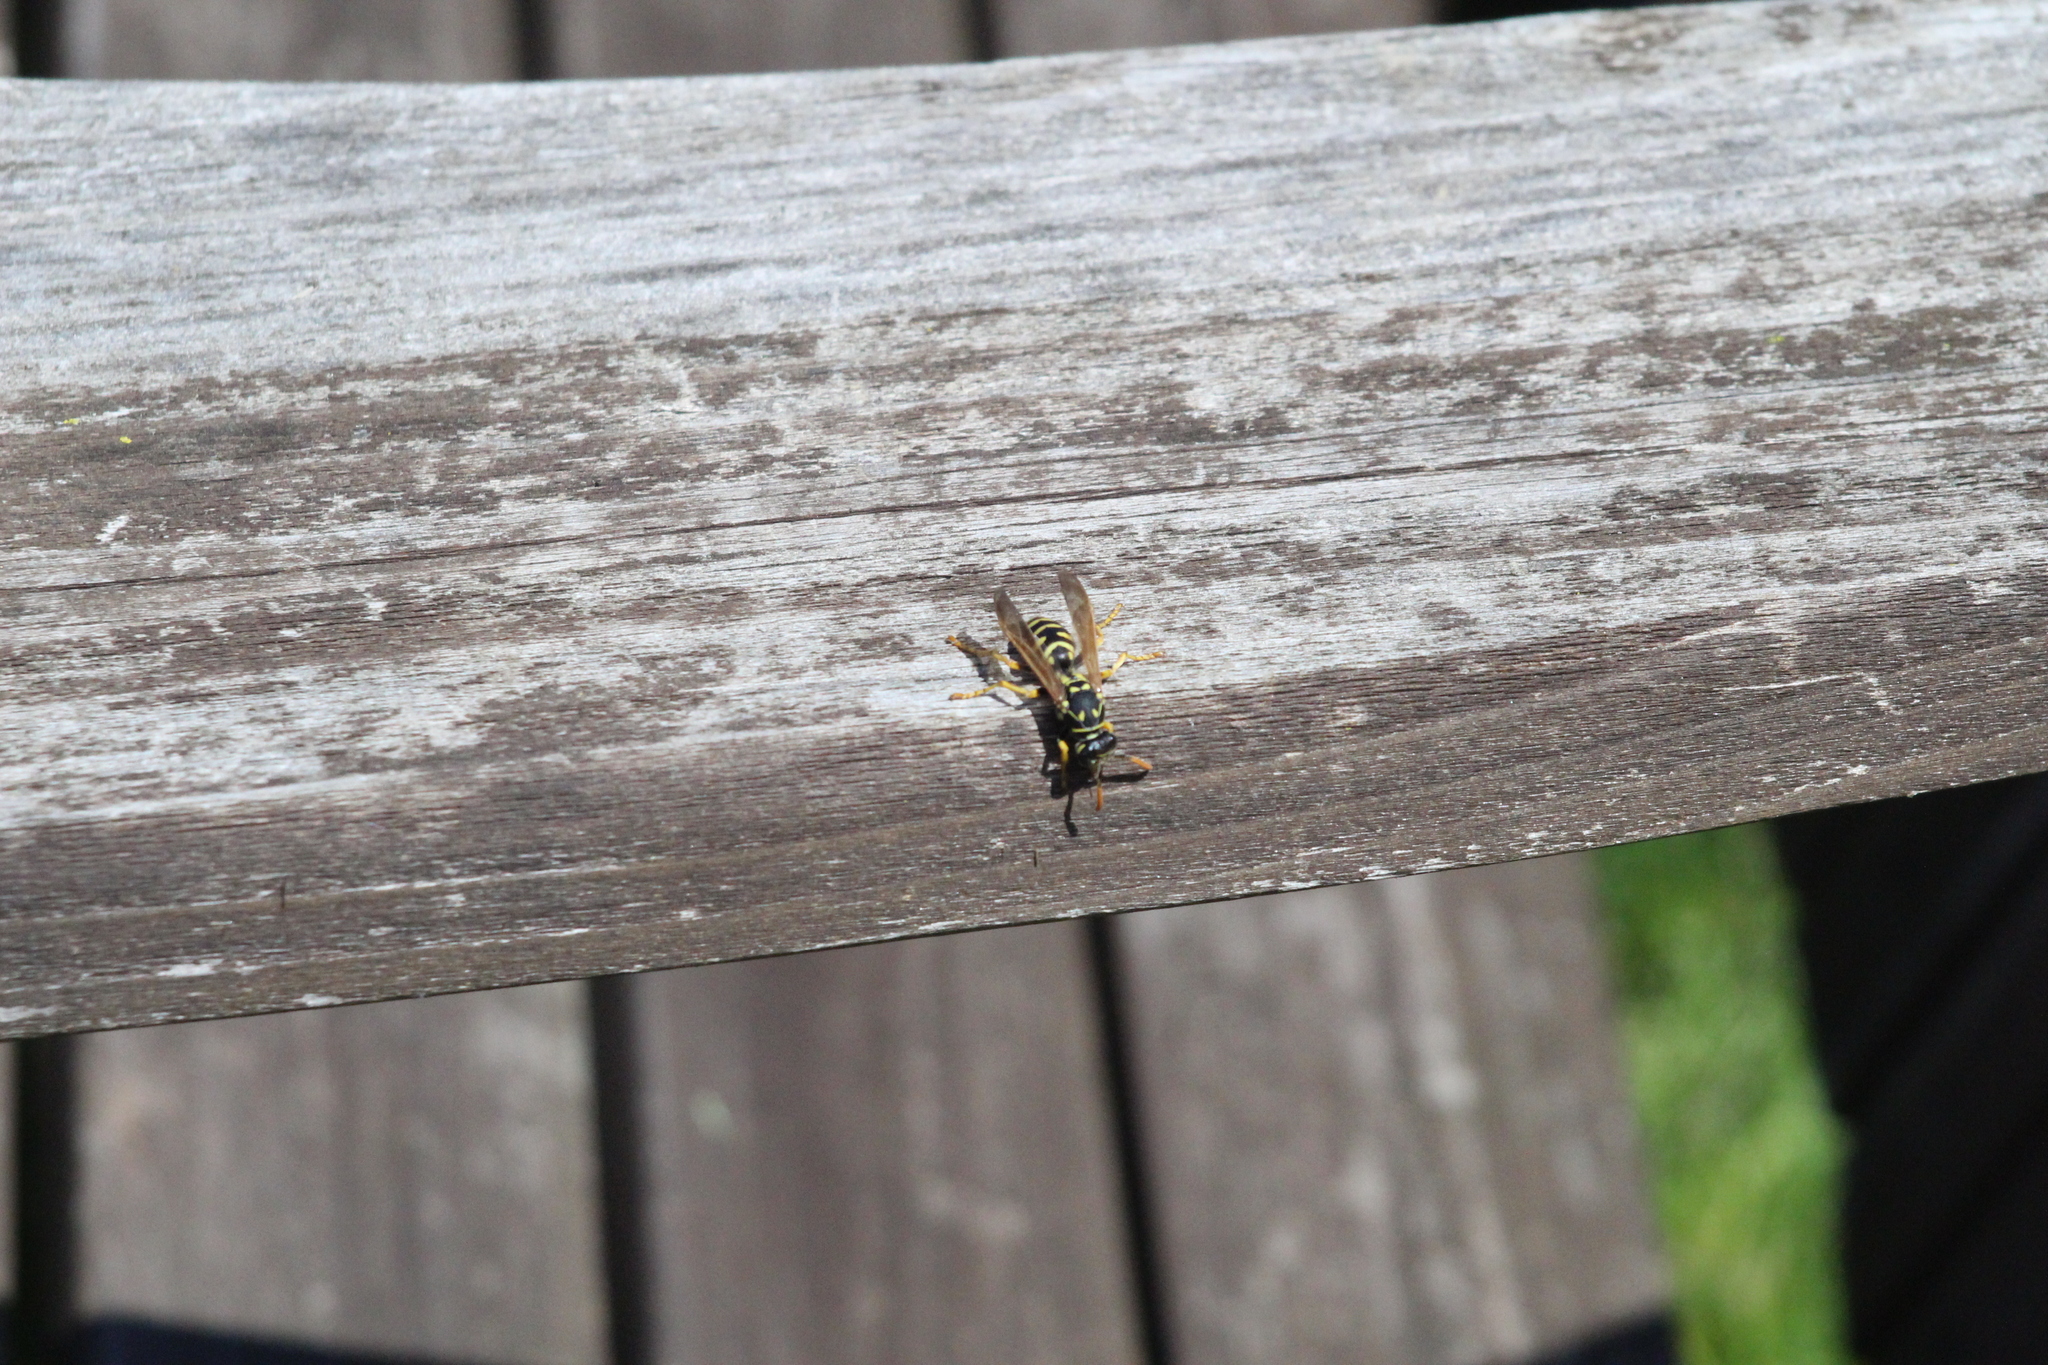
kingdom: Animalia
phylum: Arthropoda
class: Insecta
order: Hymenoptera
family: Eumenidae
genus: Polistes
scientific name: Polistes dominula
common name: Paper wasp
